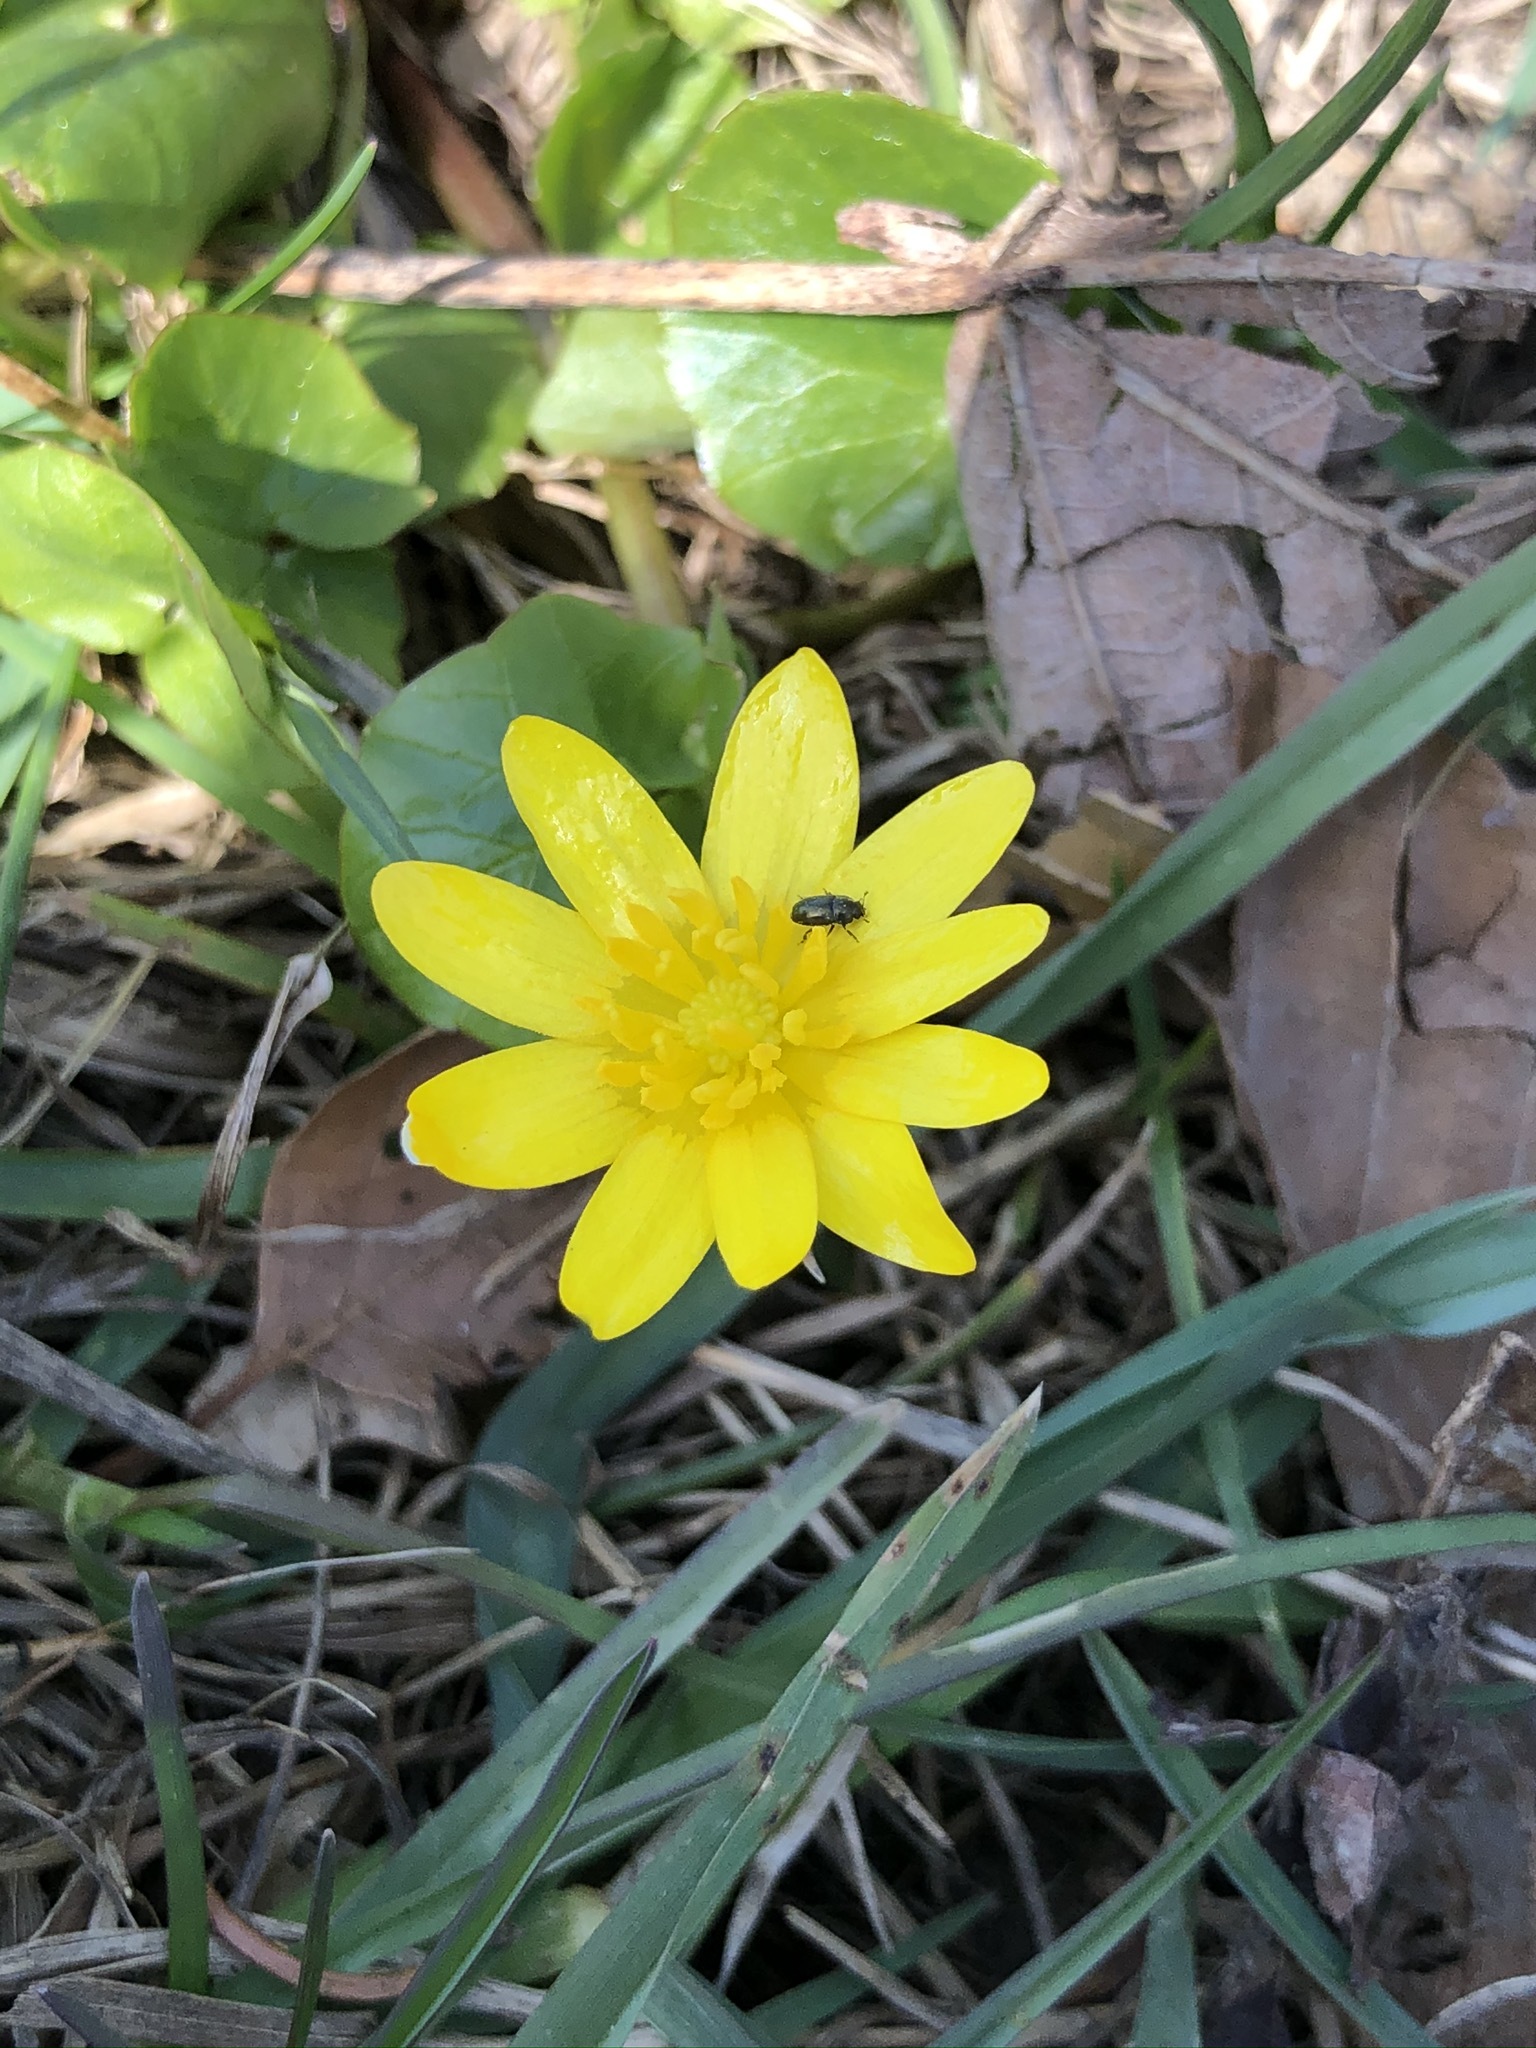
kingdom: Plantae
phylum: Tracheophyta
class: Magnoliopsida
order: Ranunculales
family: Ranunculaceae
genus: Ficaria
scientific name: Ficaria verna
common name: Lesser celandine
